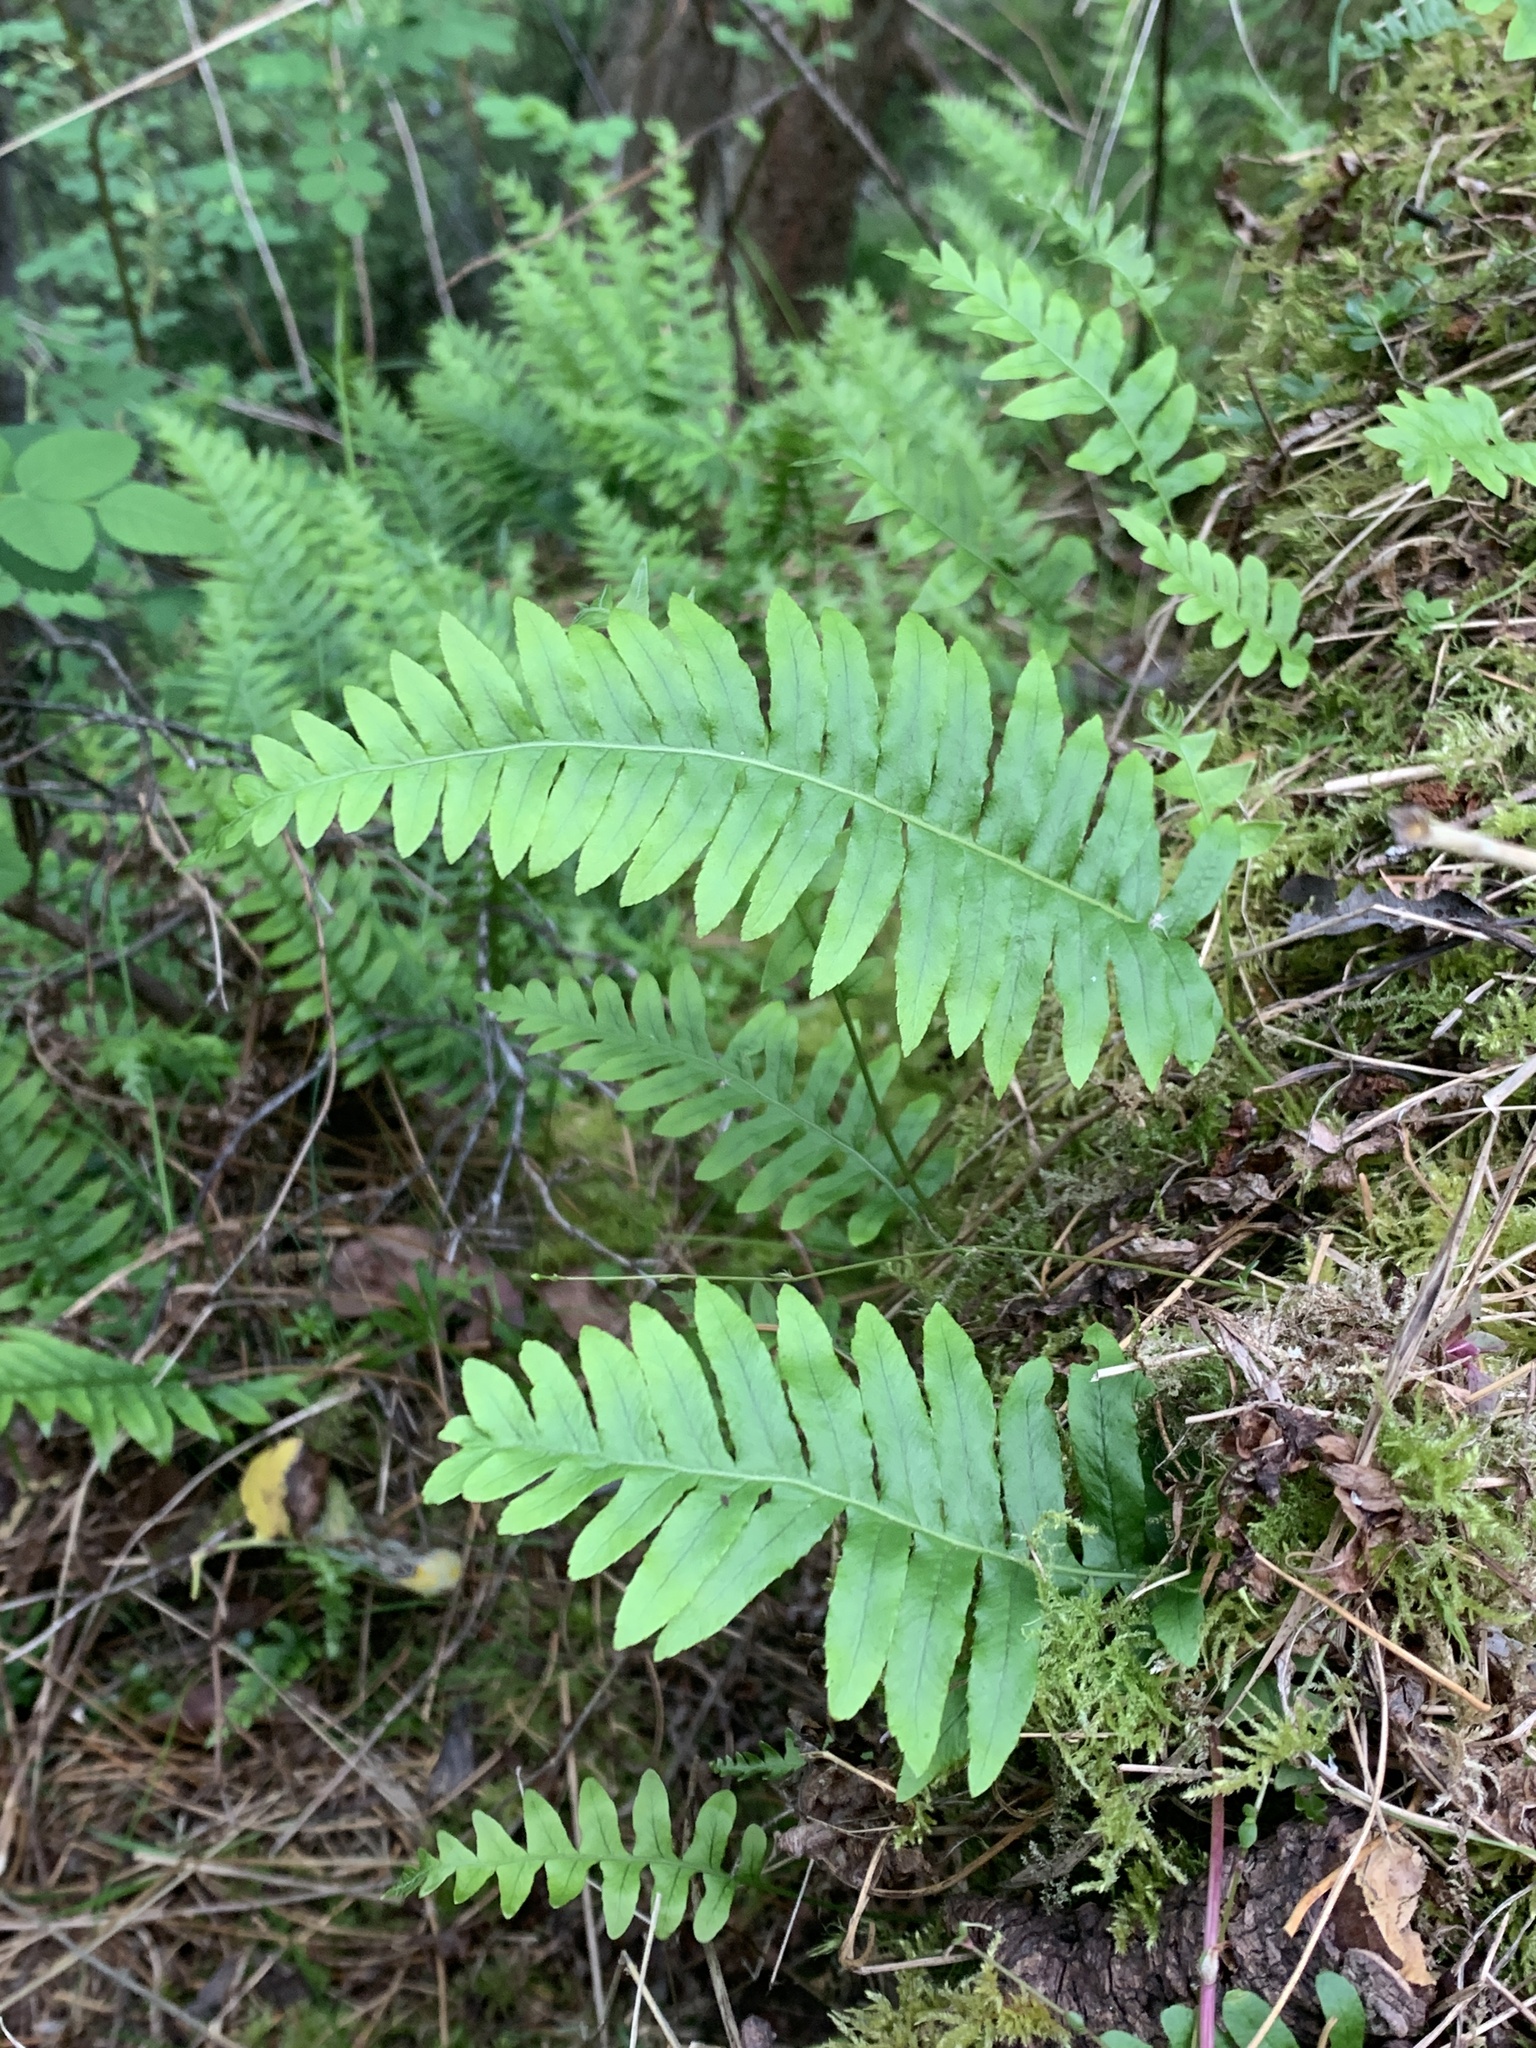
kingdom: Plantae
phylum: Tracheophyta
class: Polypodiopsida
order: Polypodiales
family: Polypodiaceae
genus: Polypodium
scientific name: Polypodium glycyrrhiza
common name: Licorice fern
